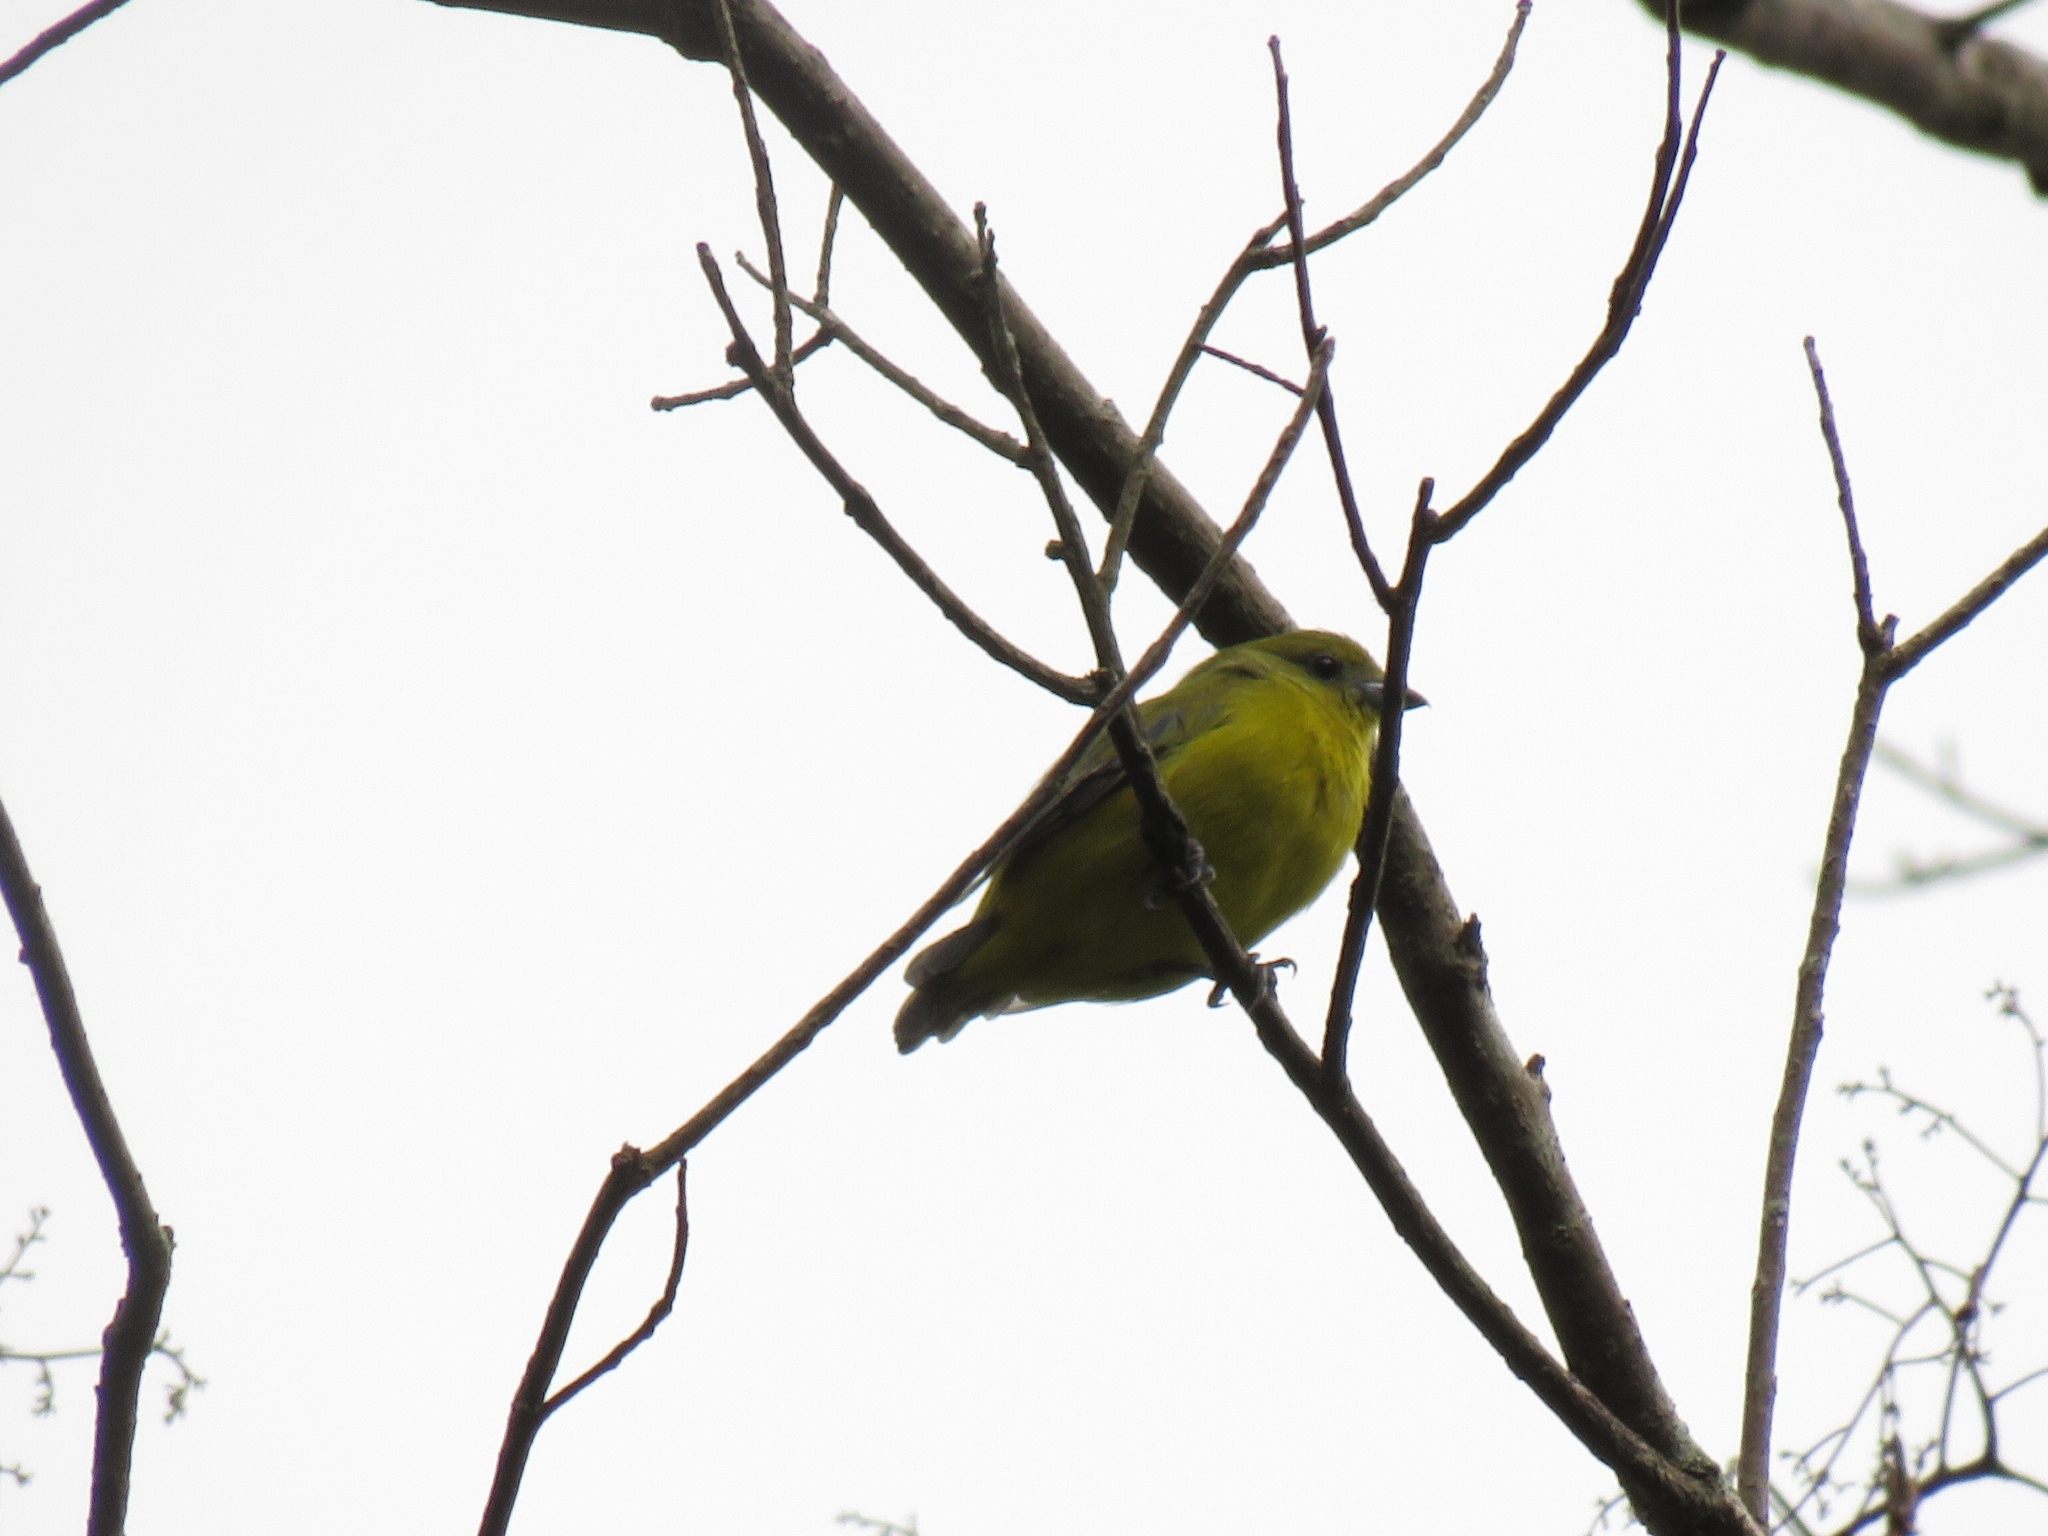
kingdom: Animalia
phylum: Chordata
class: Aves
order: Passeriformes
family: Fringillidae
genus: Euphonia
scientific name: Euphonia laniirostris
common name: Thick-billed euphonia
